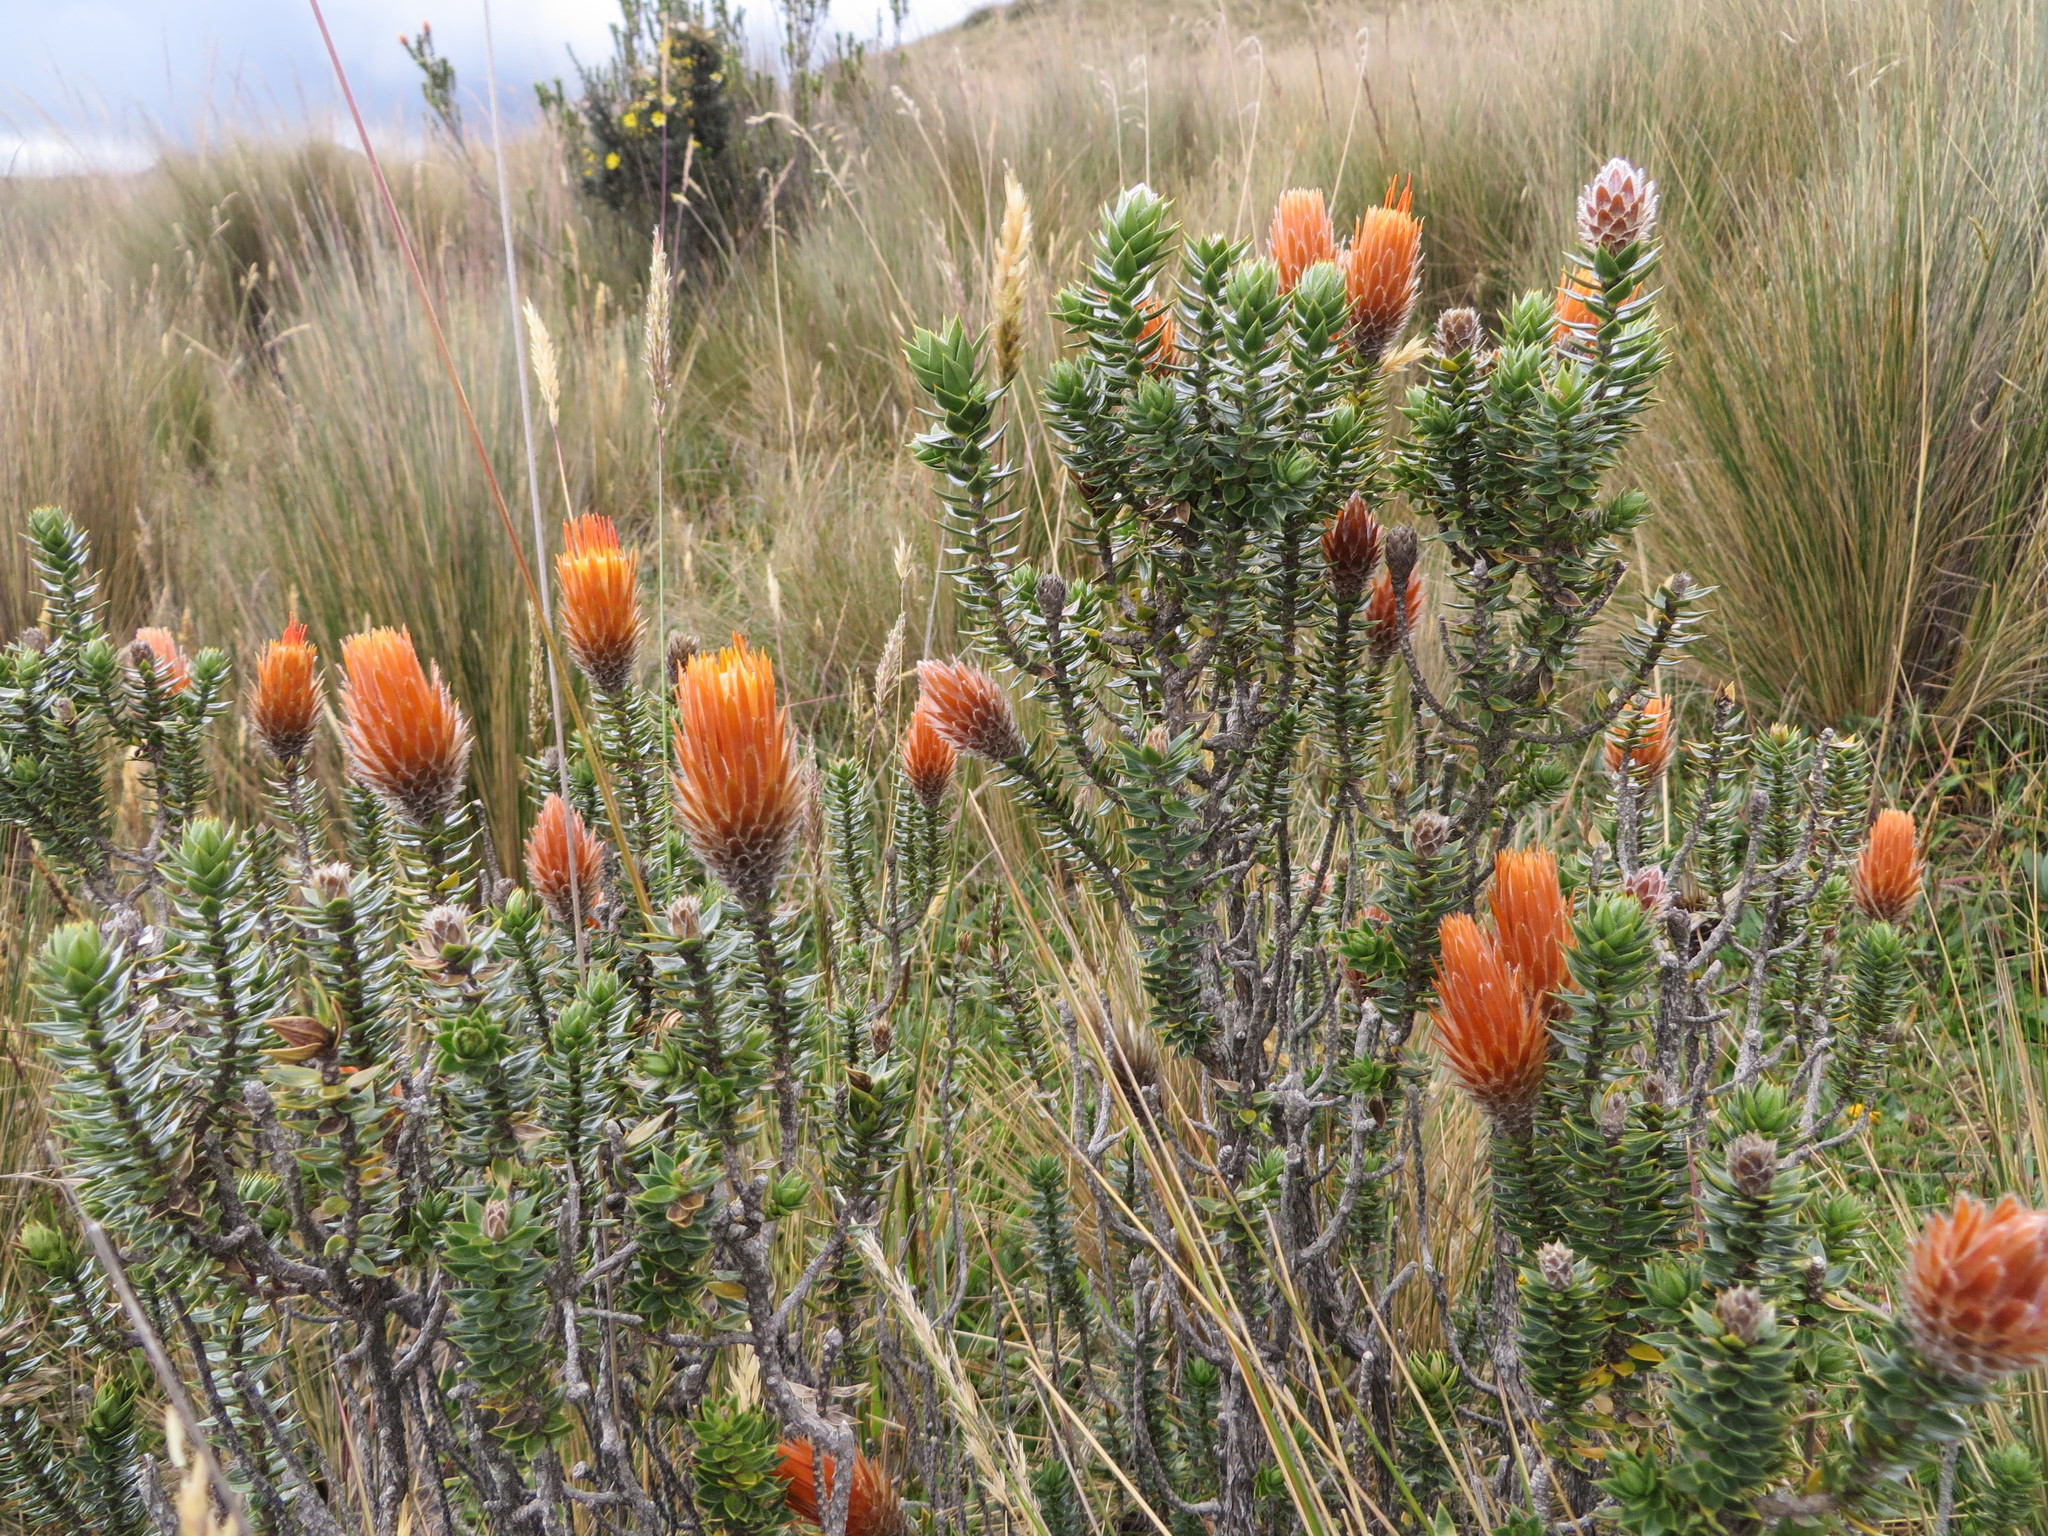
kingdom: Plantae
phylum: Tracheophyta
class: Magnoliopsida
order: Asterales
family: Asteraceae
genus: Chuquiraga
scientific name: Chuquiraga jussieui
